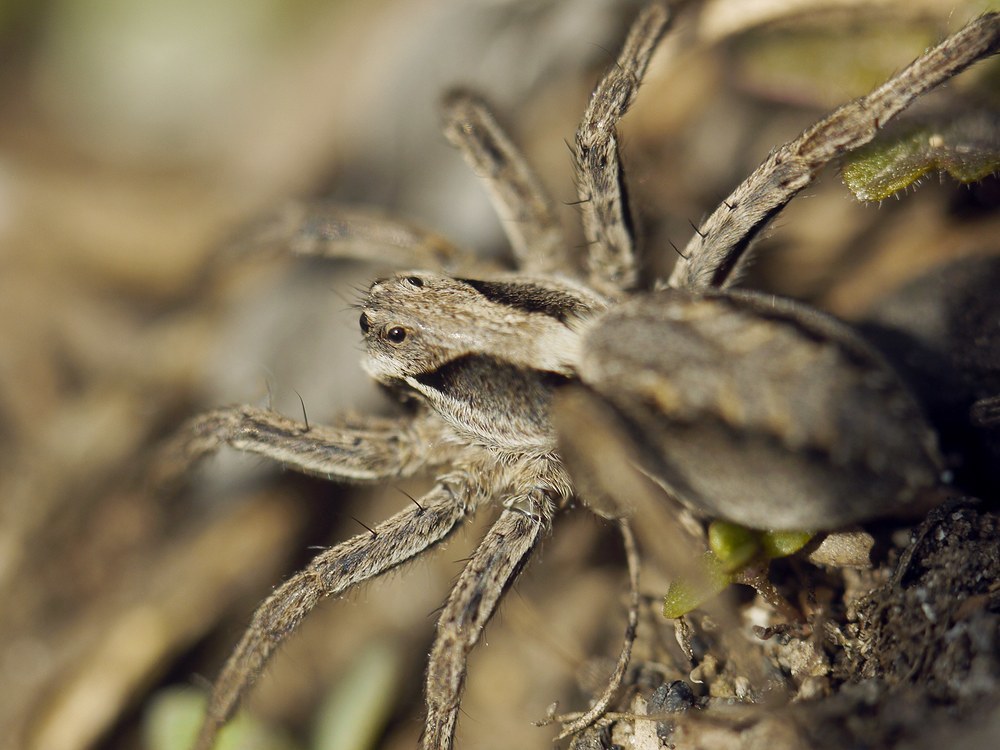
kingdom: Animalia
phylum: Arthropoda
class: Arachnida
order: Araneae
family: Lycosidae
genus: Alopecosa
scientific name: Alopecosa mariae
